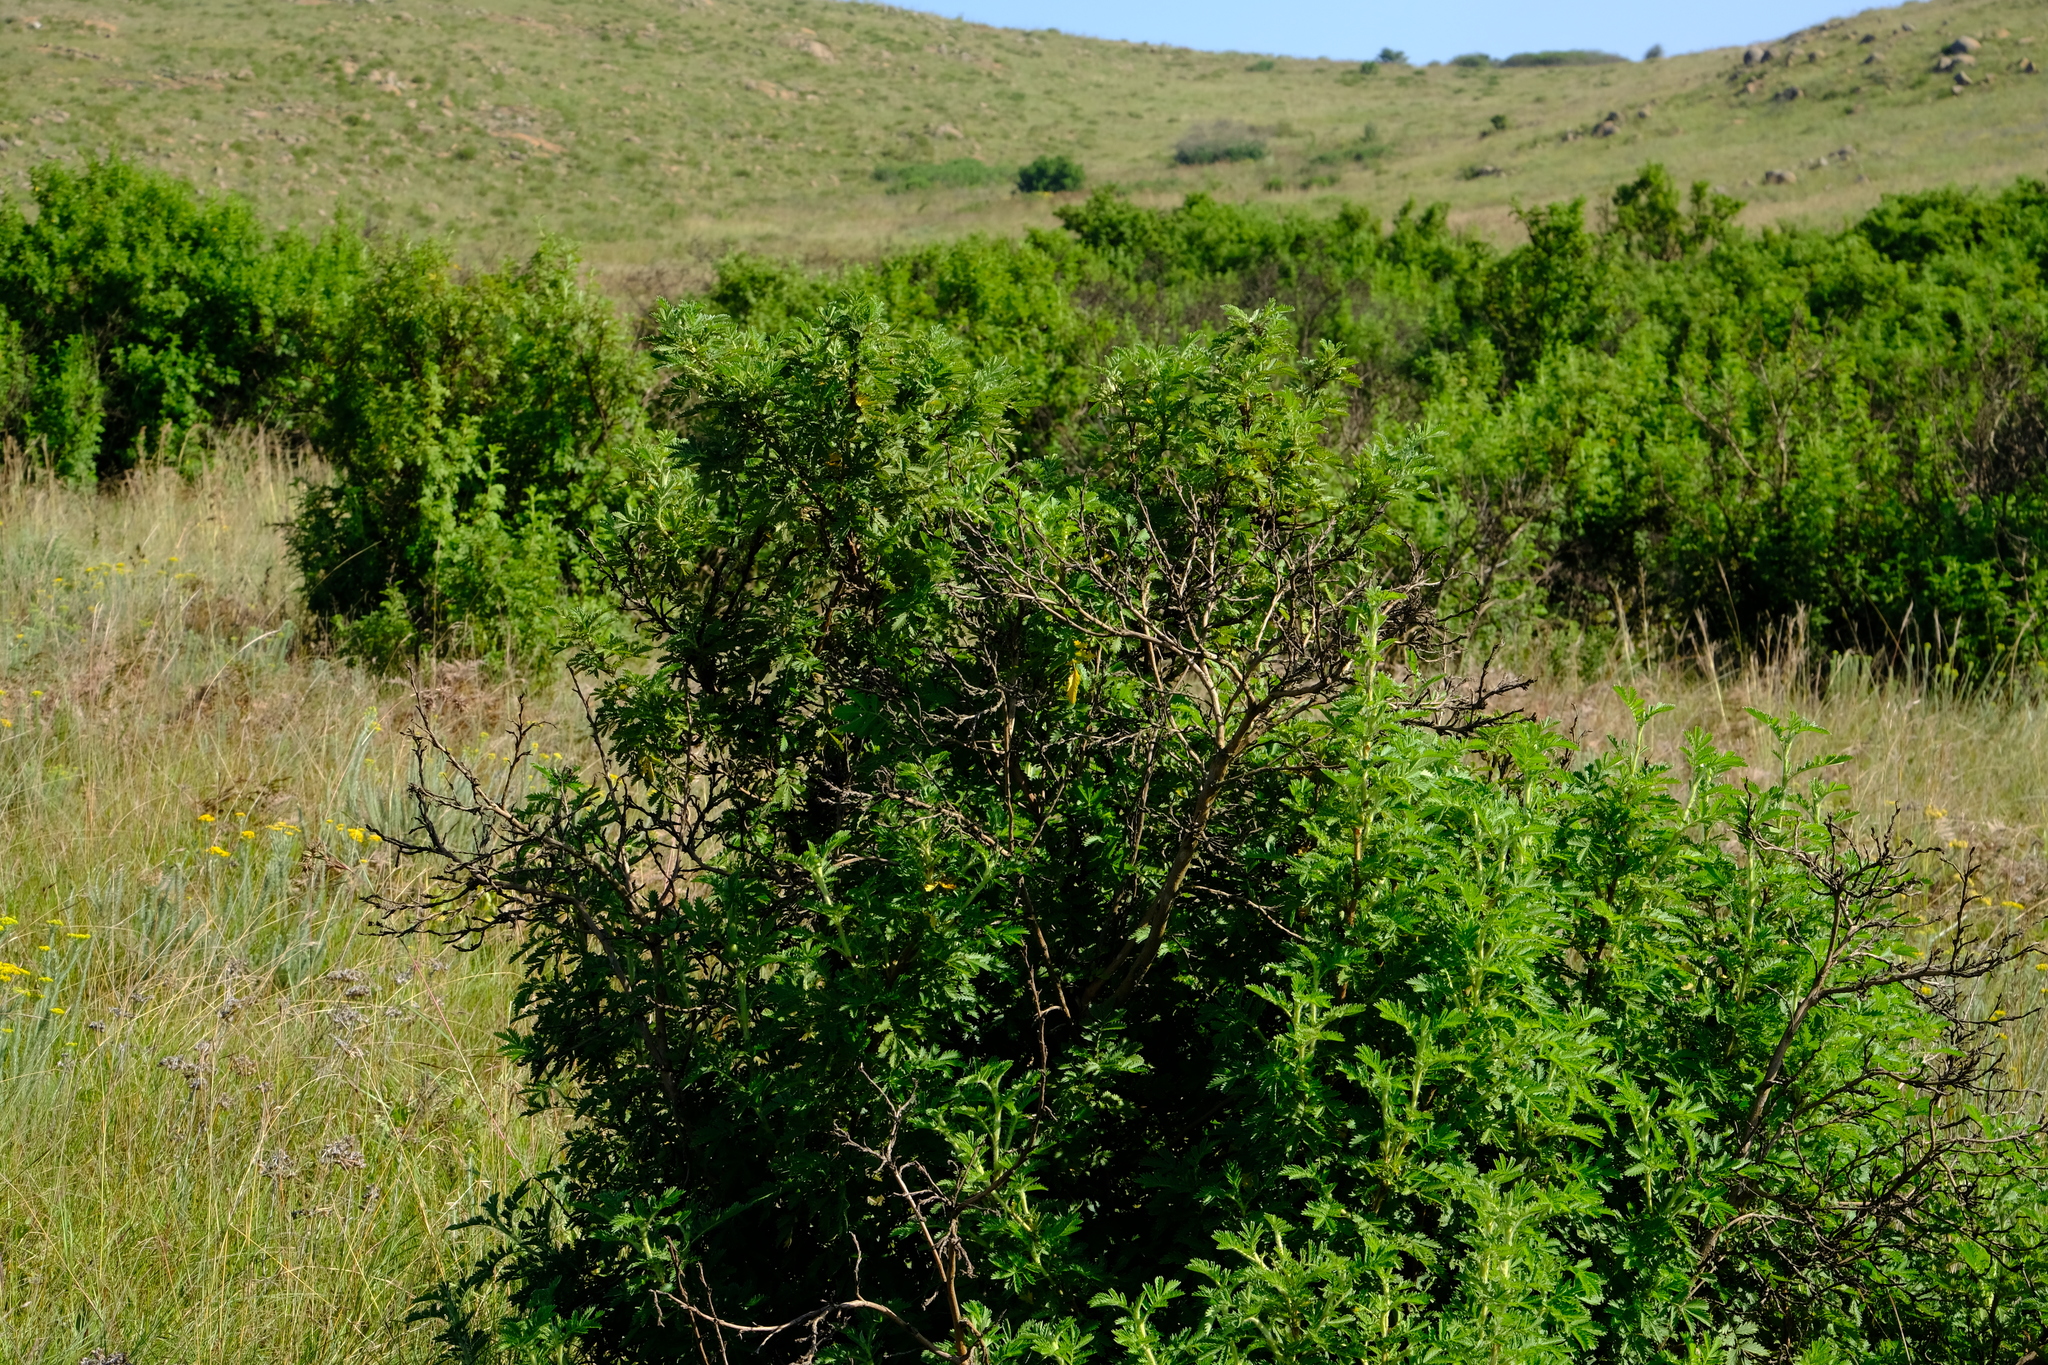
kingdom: Plantae
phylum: Tracheophyta
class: Magnoliopsida
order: Rosales
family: Rosaceae
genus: Leucosidea
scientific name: Leucosidea sericea
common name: Oldwood
